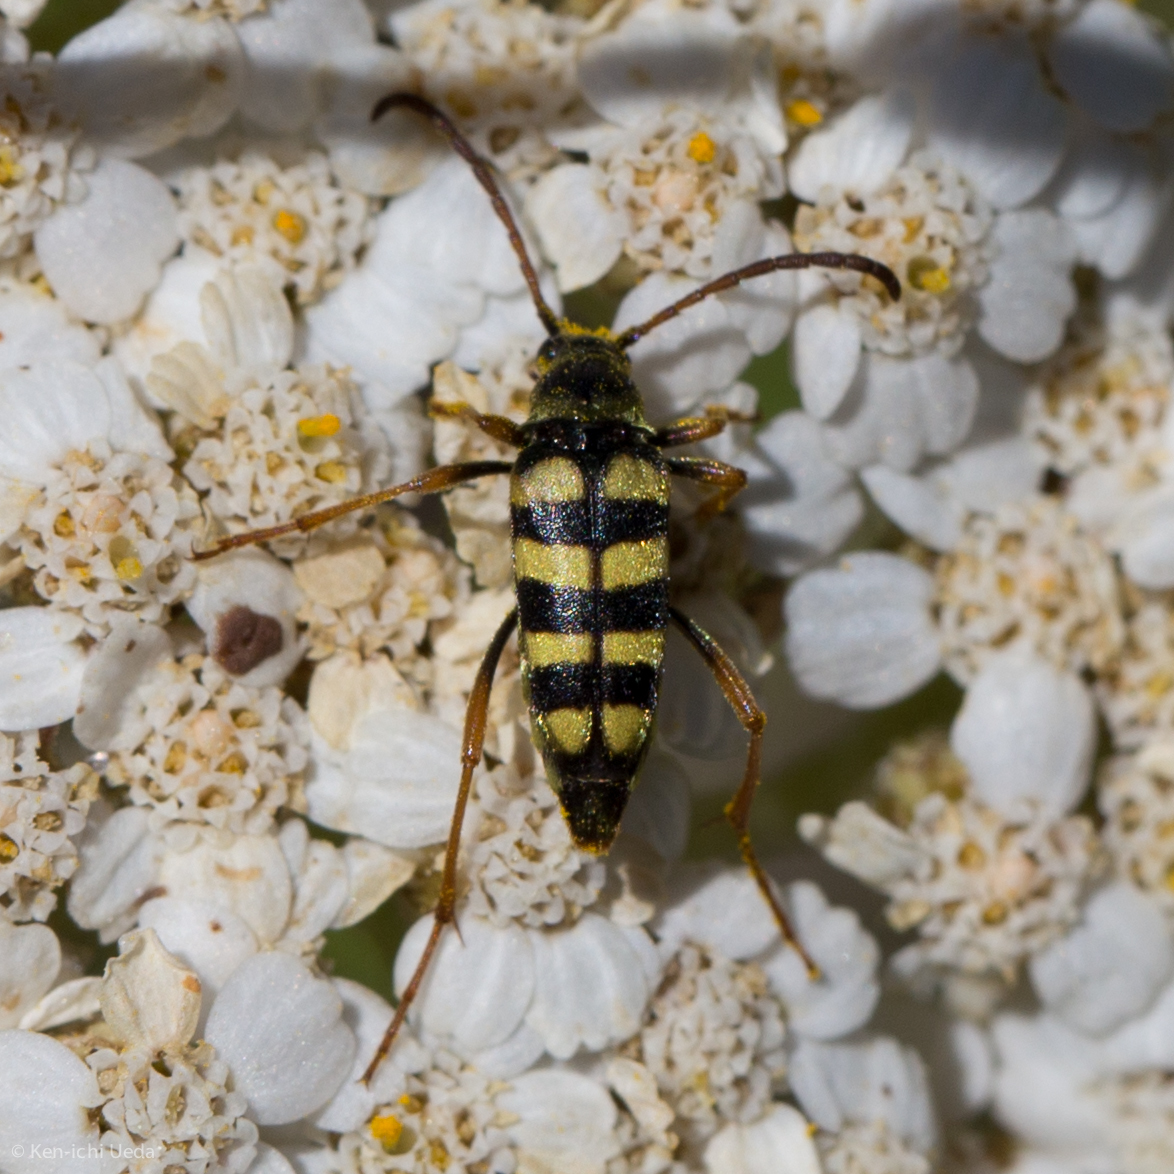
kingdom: Animalia
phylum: Arthropoda
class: Insecta
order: Coleoptera
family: Cerambycidae
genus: Stenostrophia
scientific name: Stenostrophia tribalteata
